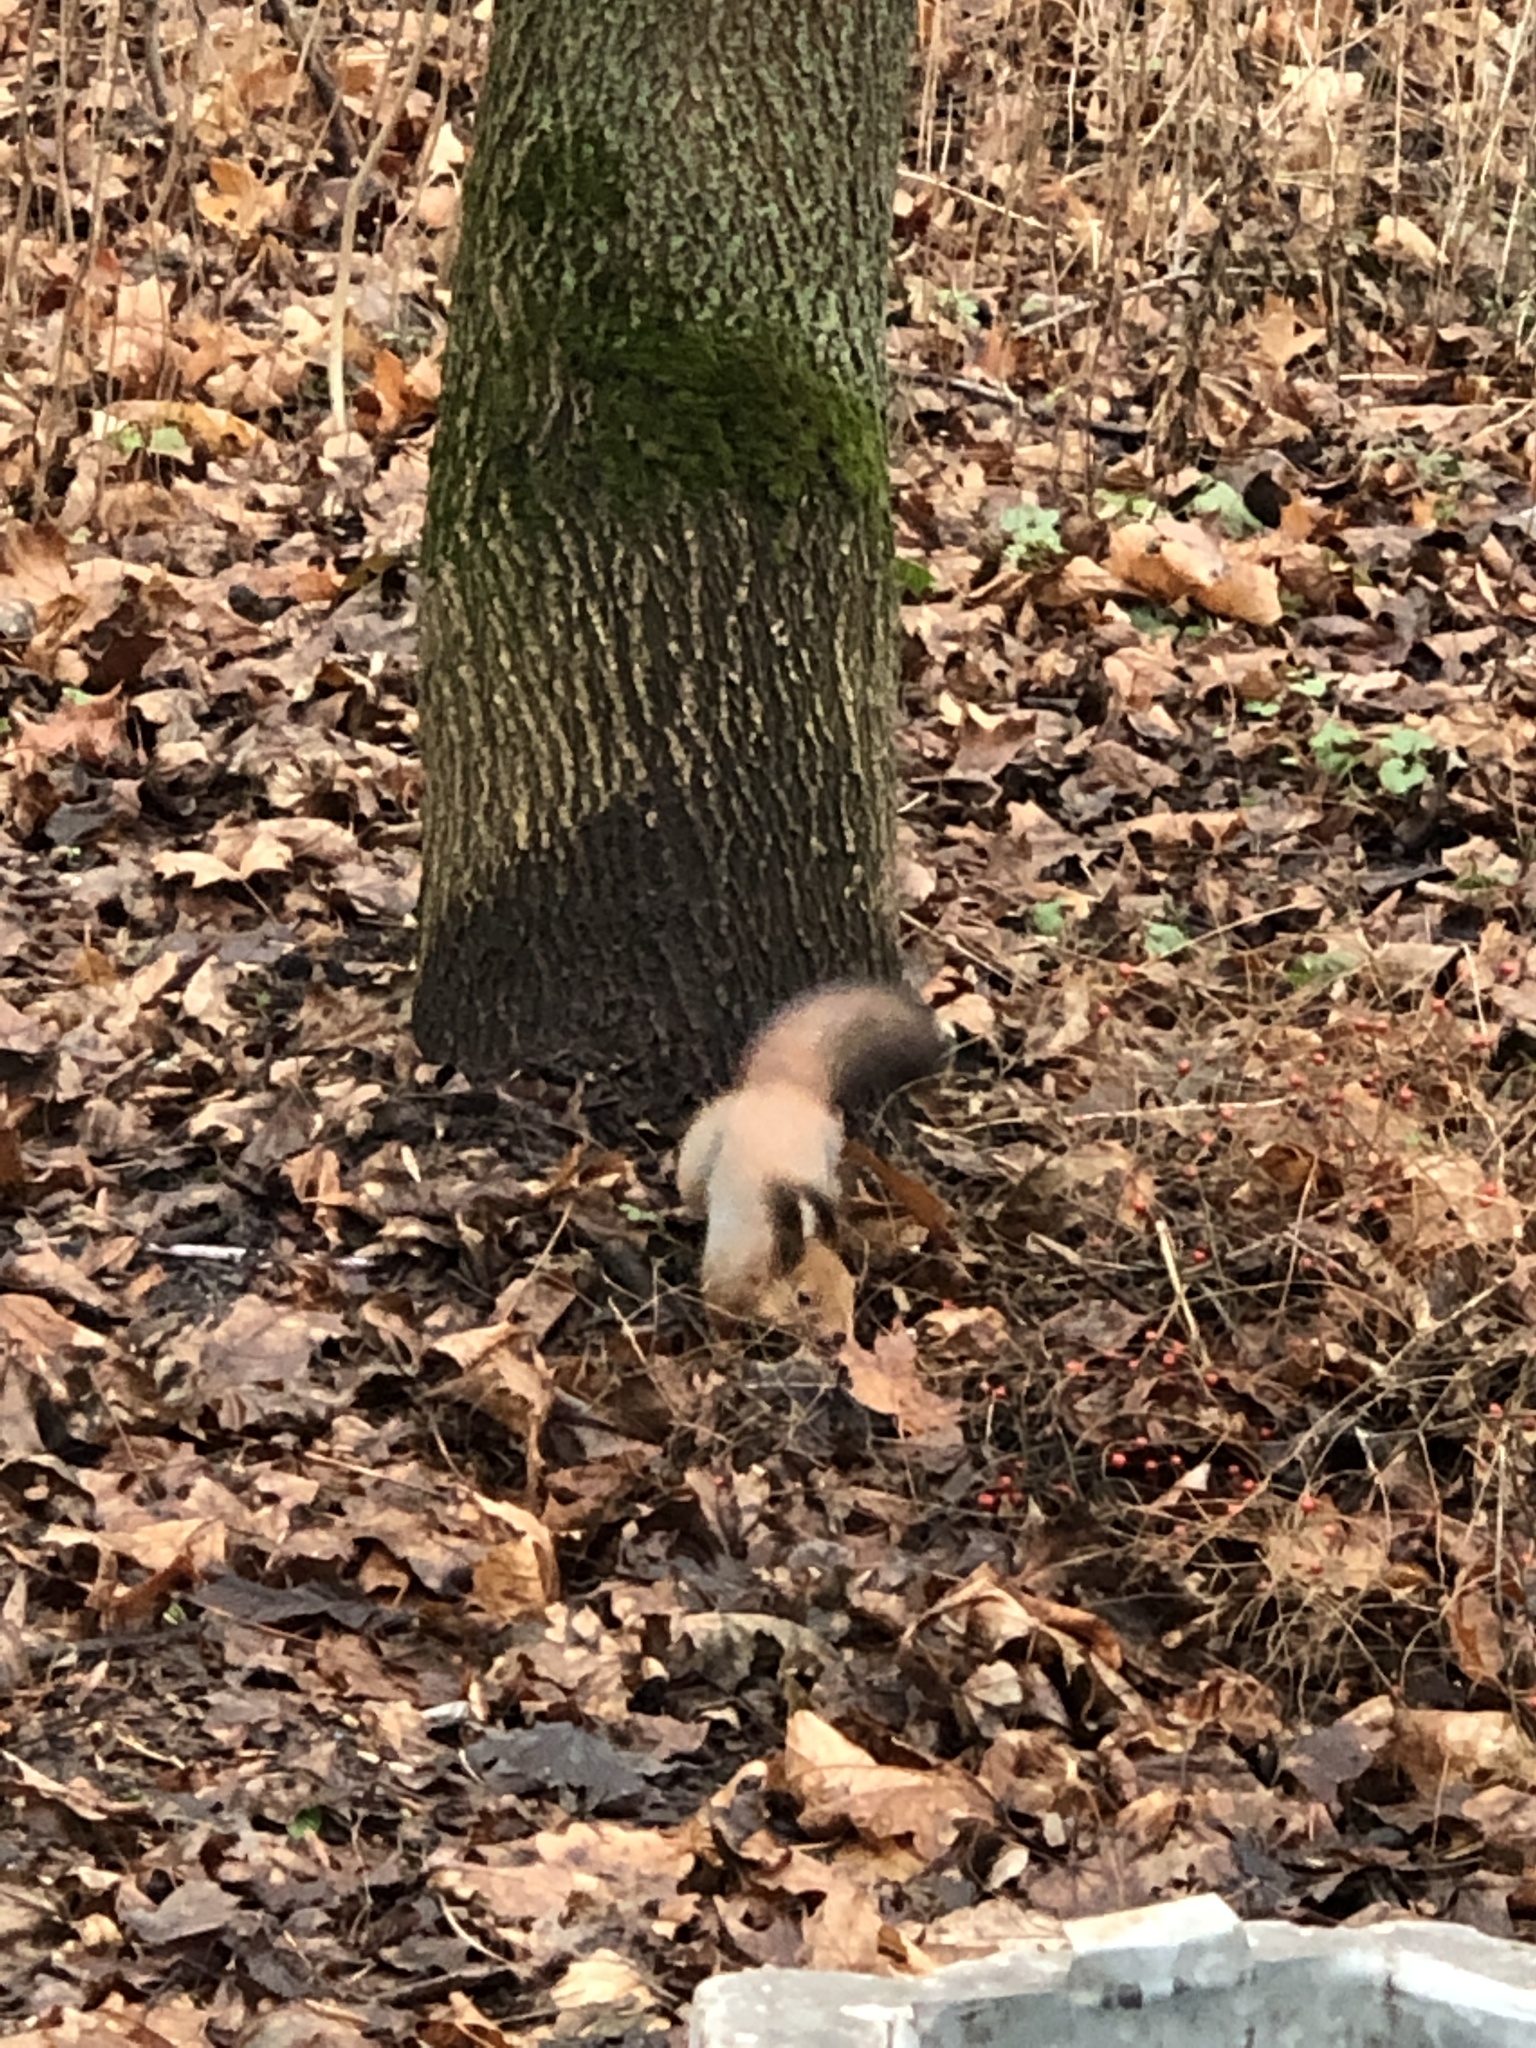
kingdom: Animalia
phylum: Chordata
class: Mammalia
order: Rodentia
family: Sciuridae
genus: Sciurus
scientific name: Sciurus vulgaris
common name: Eurasian red squirrel
